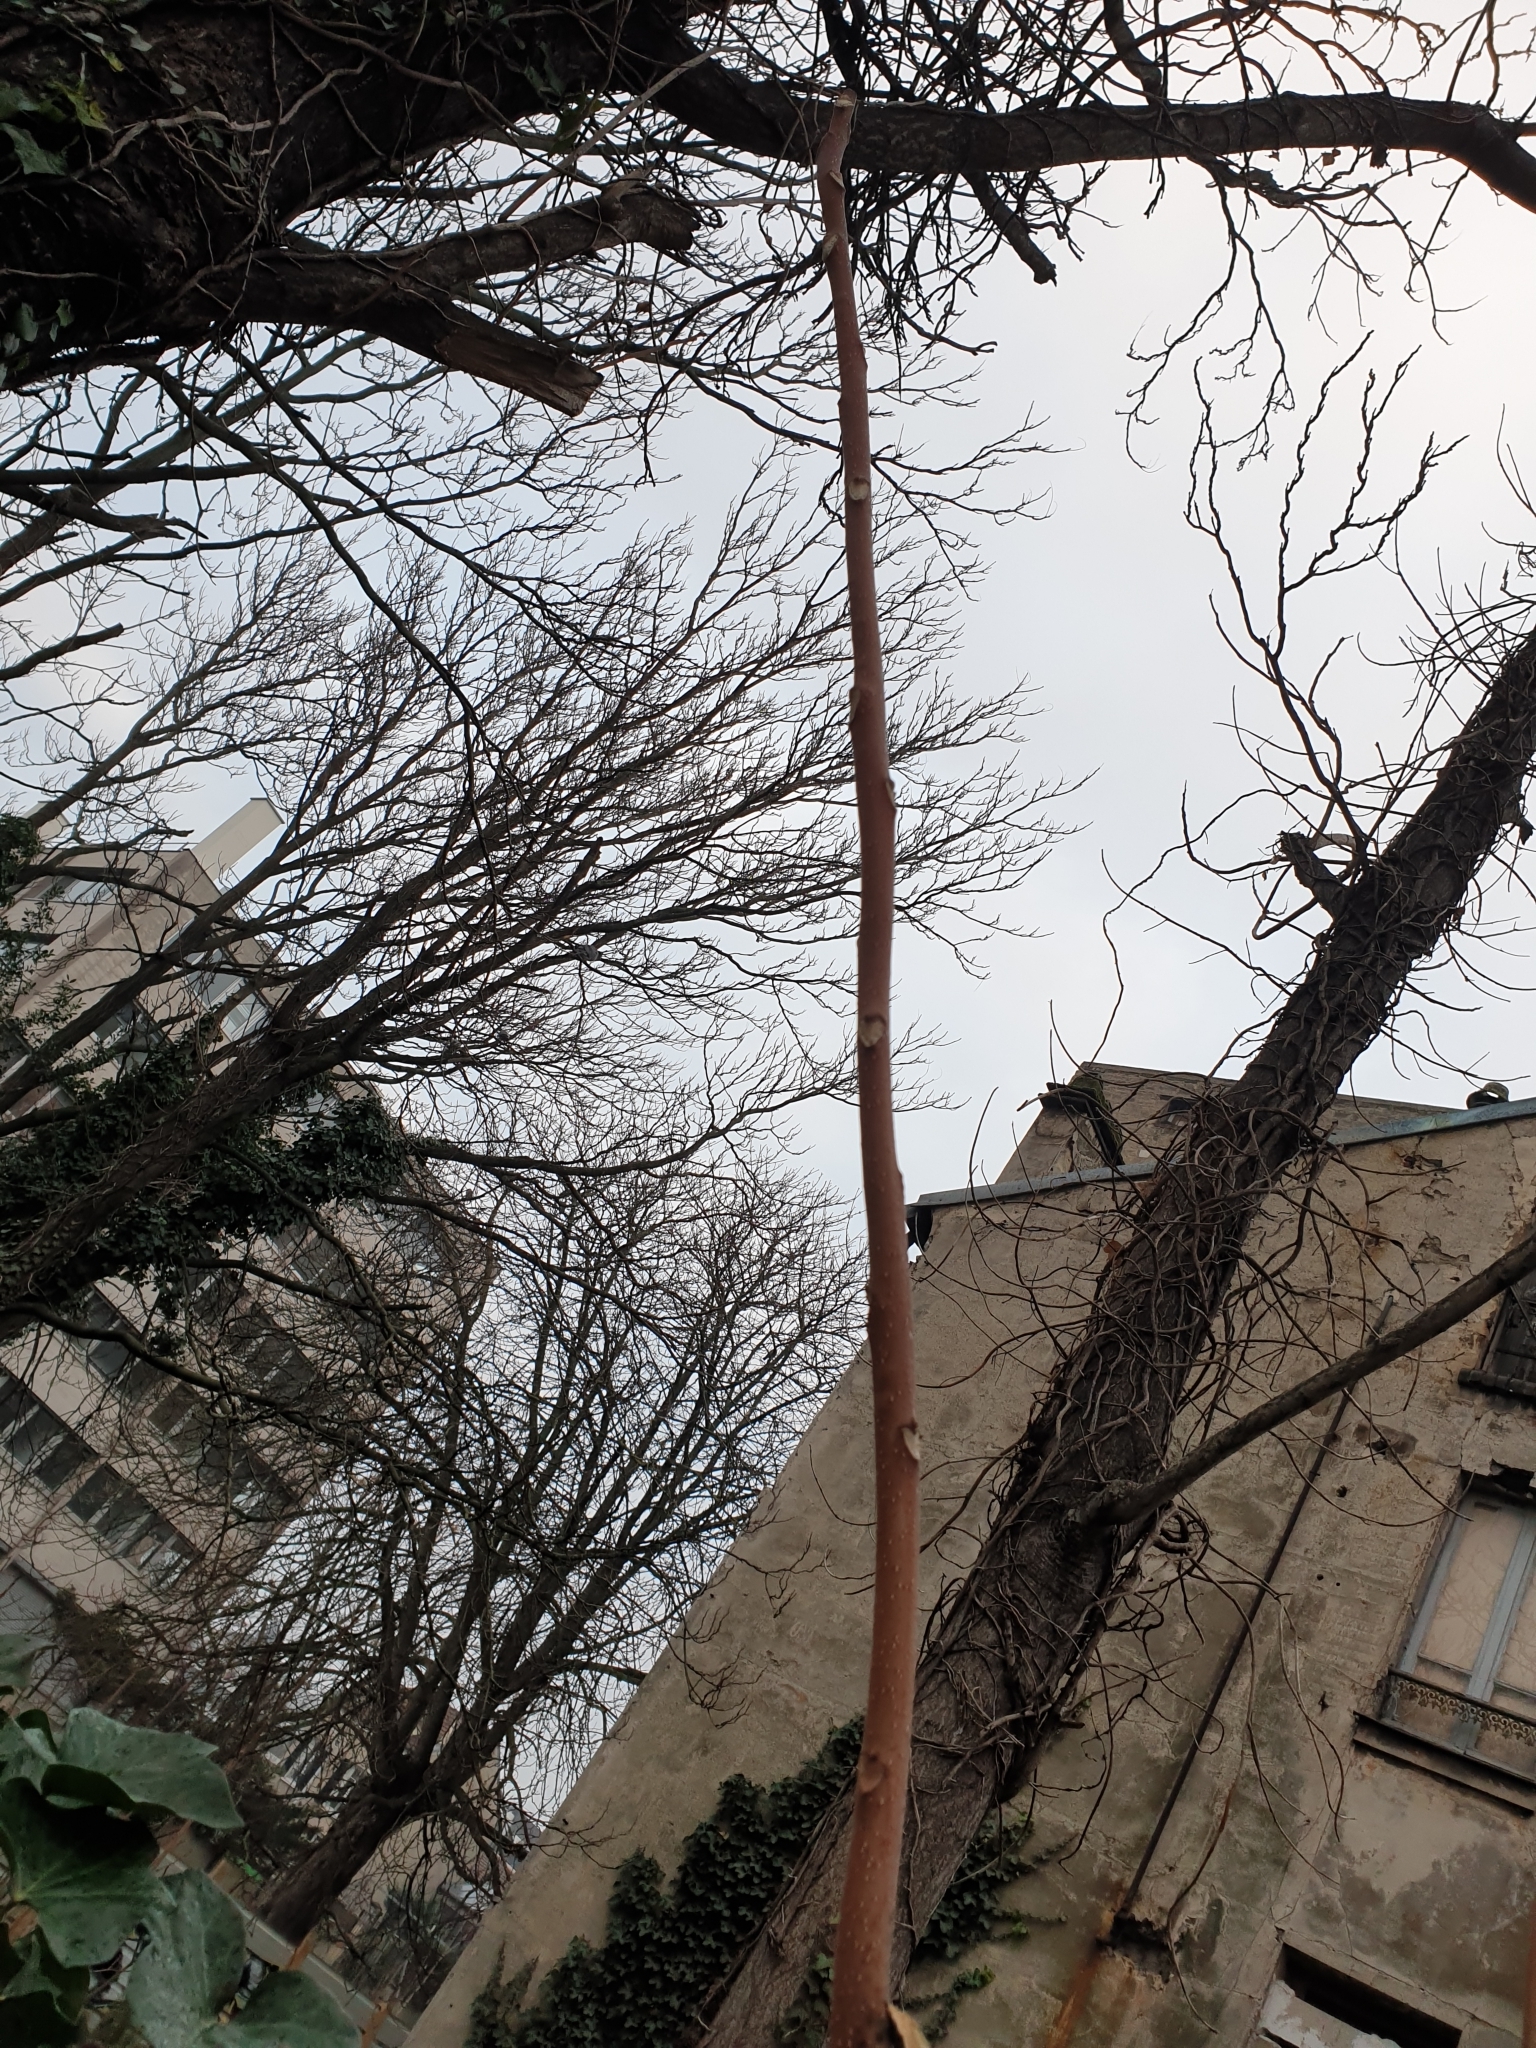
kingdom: Plantae
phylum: Tracheophyta
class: Magnoliopsida
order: Sapindales
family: Simaroubaceae
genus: Ailanthus
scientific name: Ailanthus altissima
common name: Tree-of-heaven
